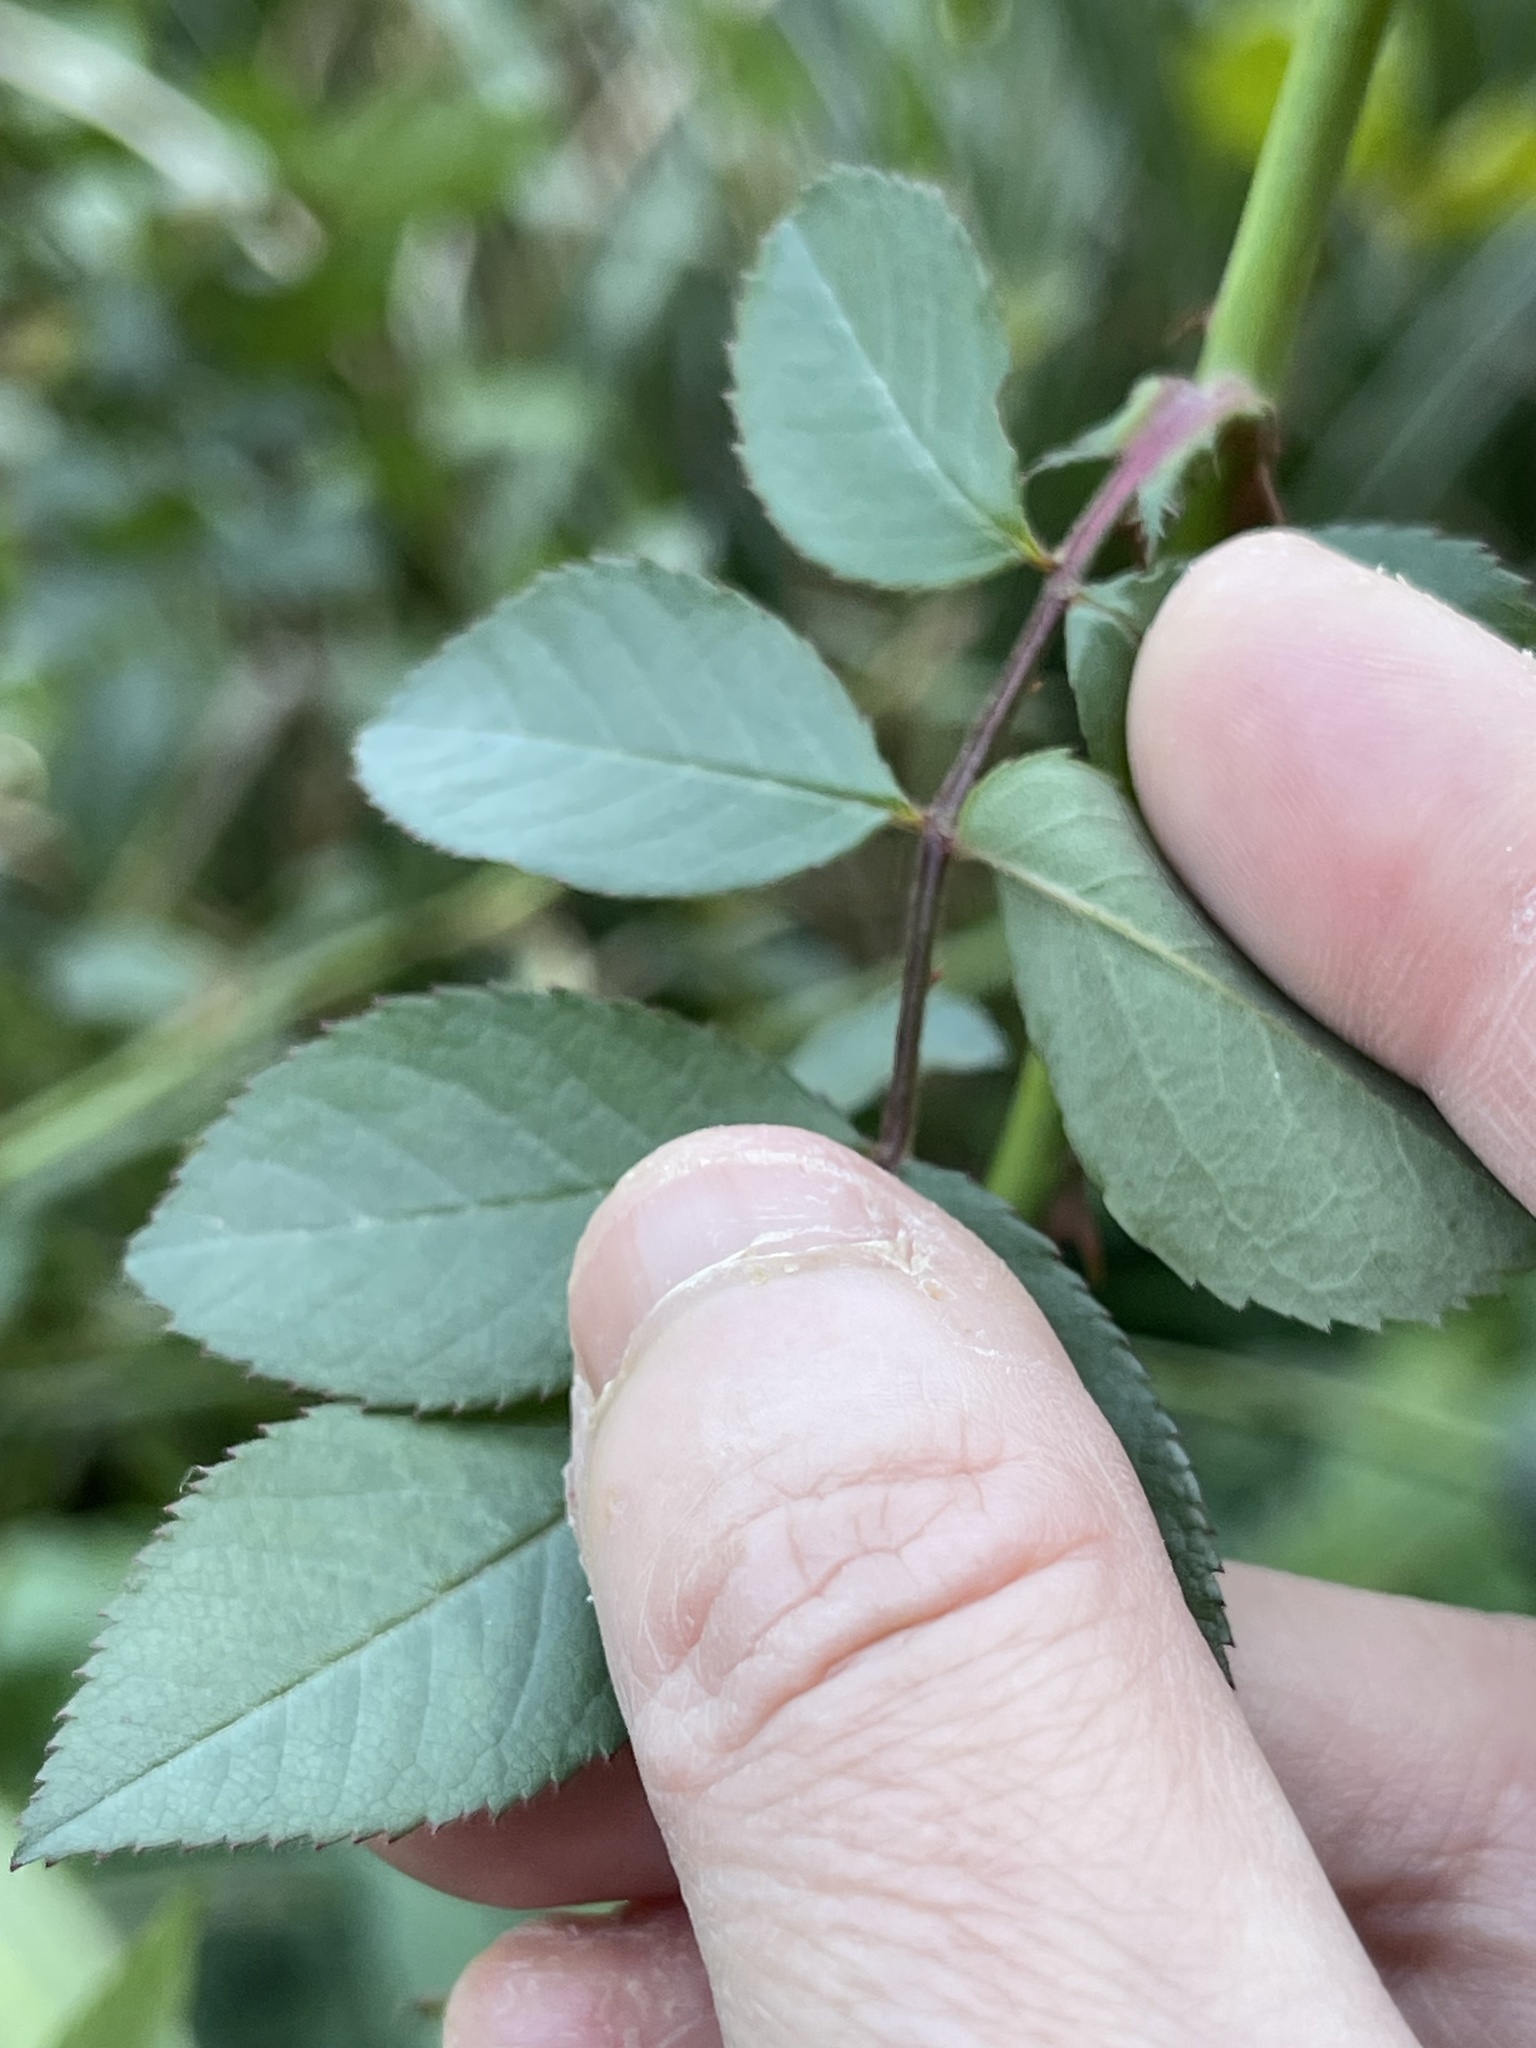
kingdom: Plantae
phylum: Tracheophyta
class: Magnoliopsida
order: Rosales
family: Rosaceae
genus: Rosa
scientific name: Rosa multiflora
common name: Multiflora rose
